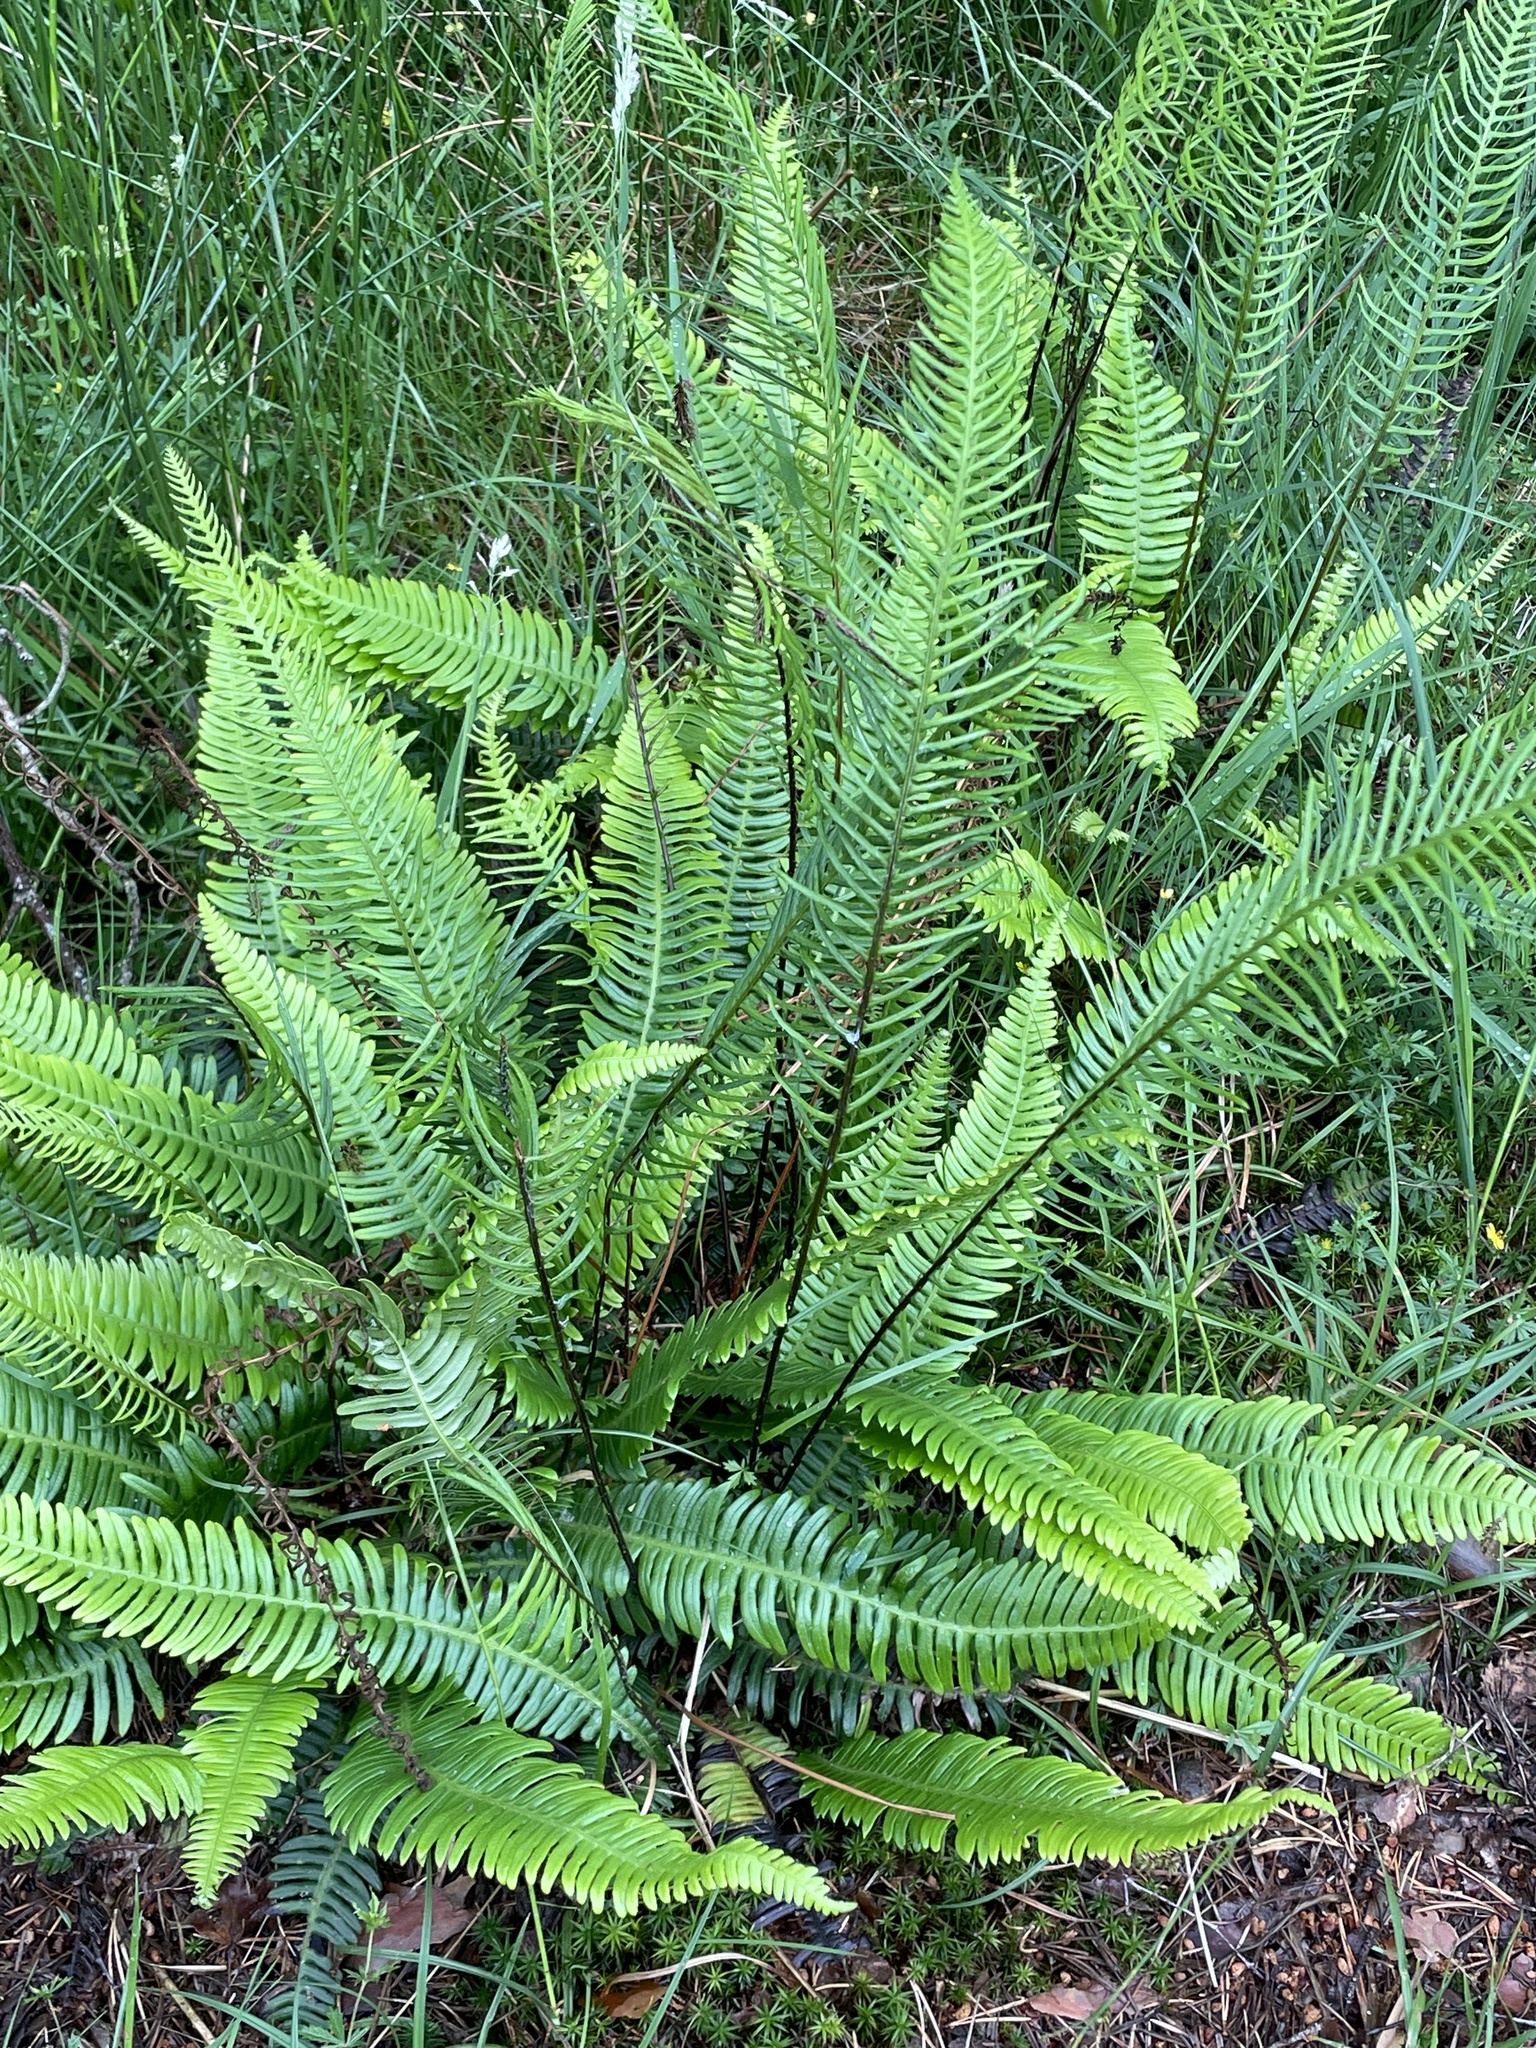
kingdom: Plantae
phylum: Tracheophyta
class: Polypodiopsida
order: Polypodiales
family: Blechnaceae
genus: Struthiopteris
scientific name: Struthiopteris spicant
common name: Deer fern
